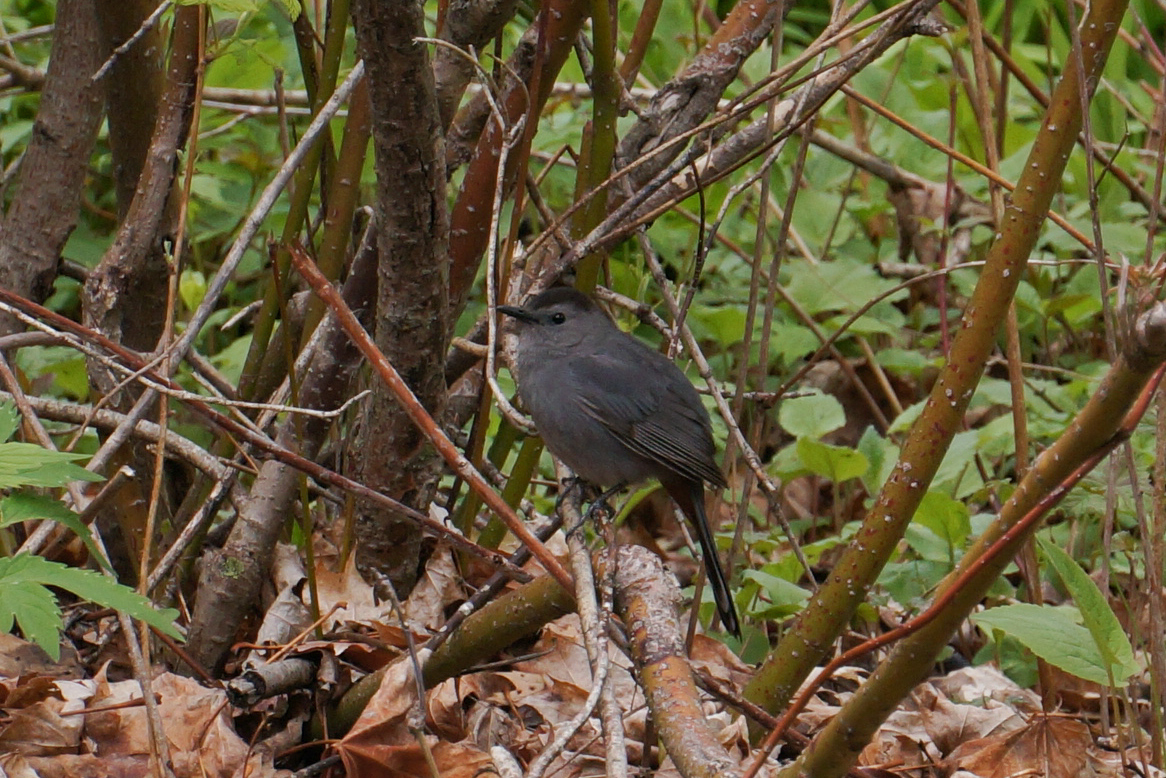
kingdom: Animalia
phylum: Chordata
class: Aves
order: Passeriformes
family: Mimidae
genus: Dumetella
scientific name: Dumetella carolinensis
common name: Gray catbird
